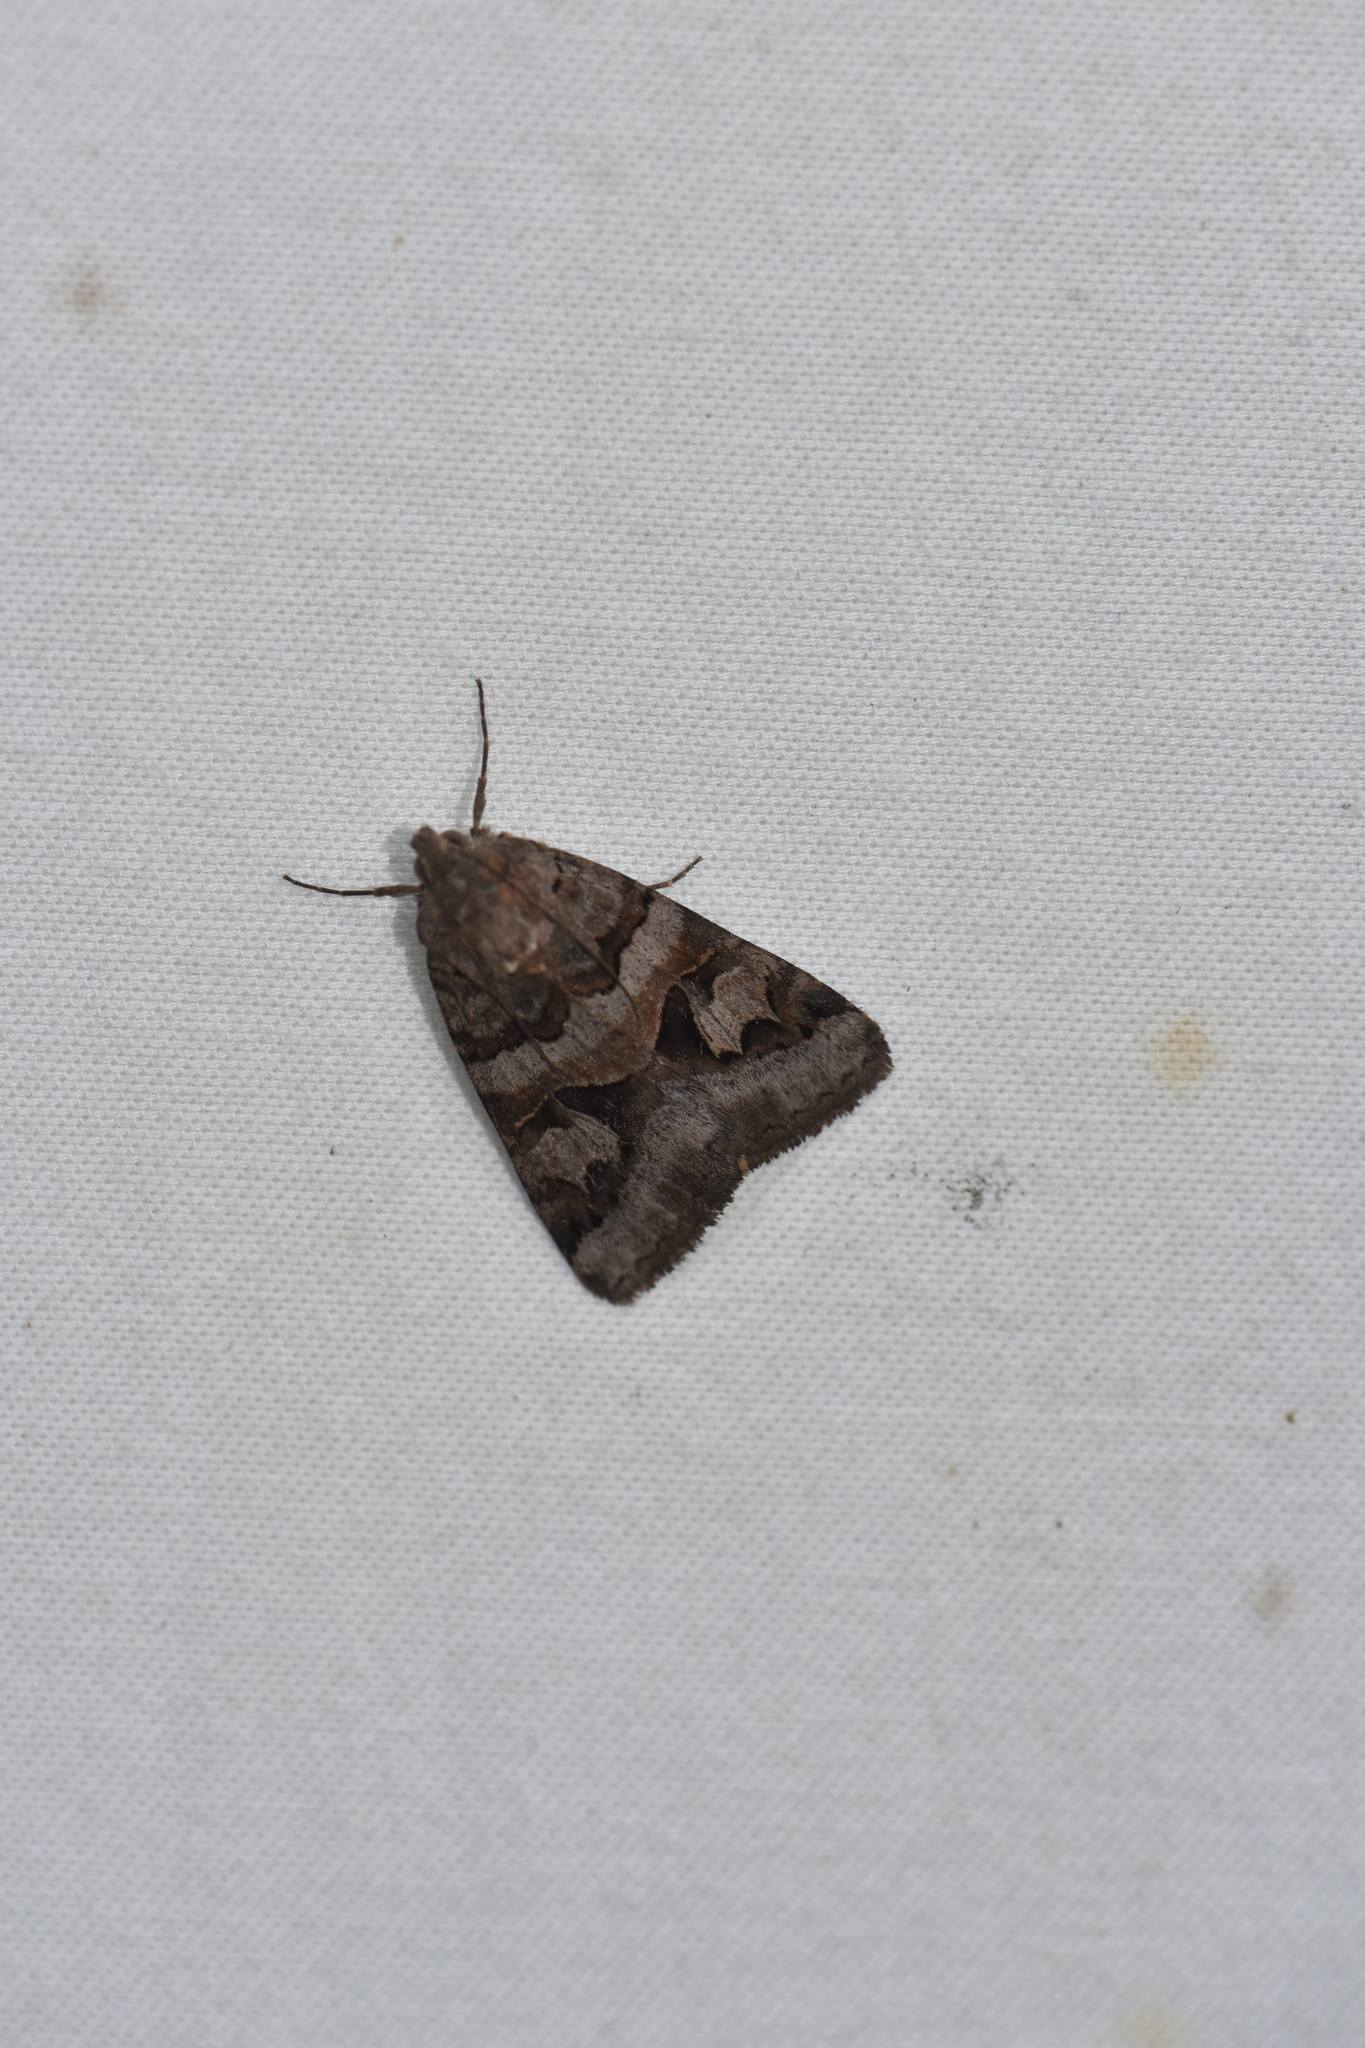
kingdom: Animalia
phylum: Arthropoda
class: Insecta
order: Lepidoptera
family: Erebidae
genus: Drasteria
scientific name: Drasteria adumbrata
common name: Shadowy arches
